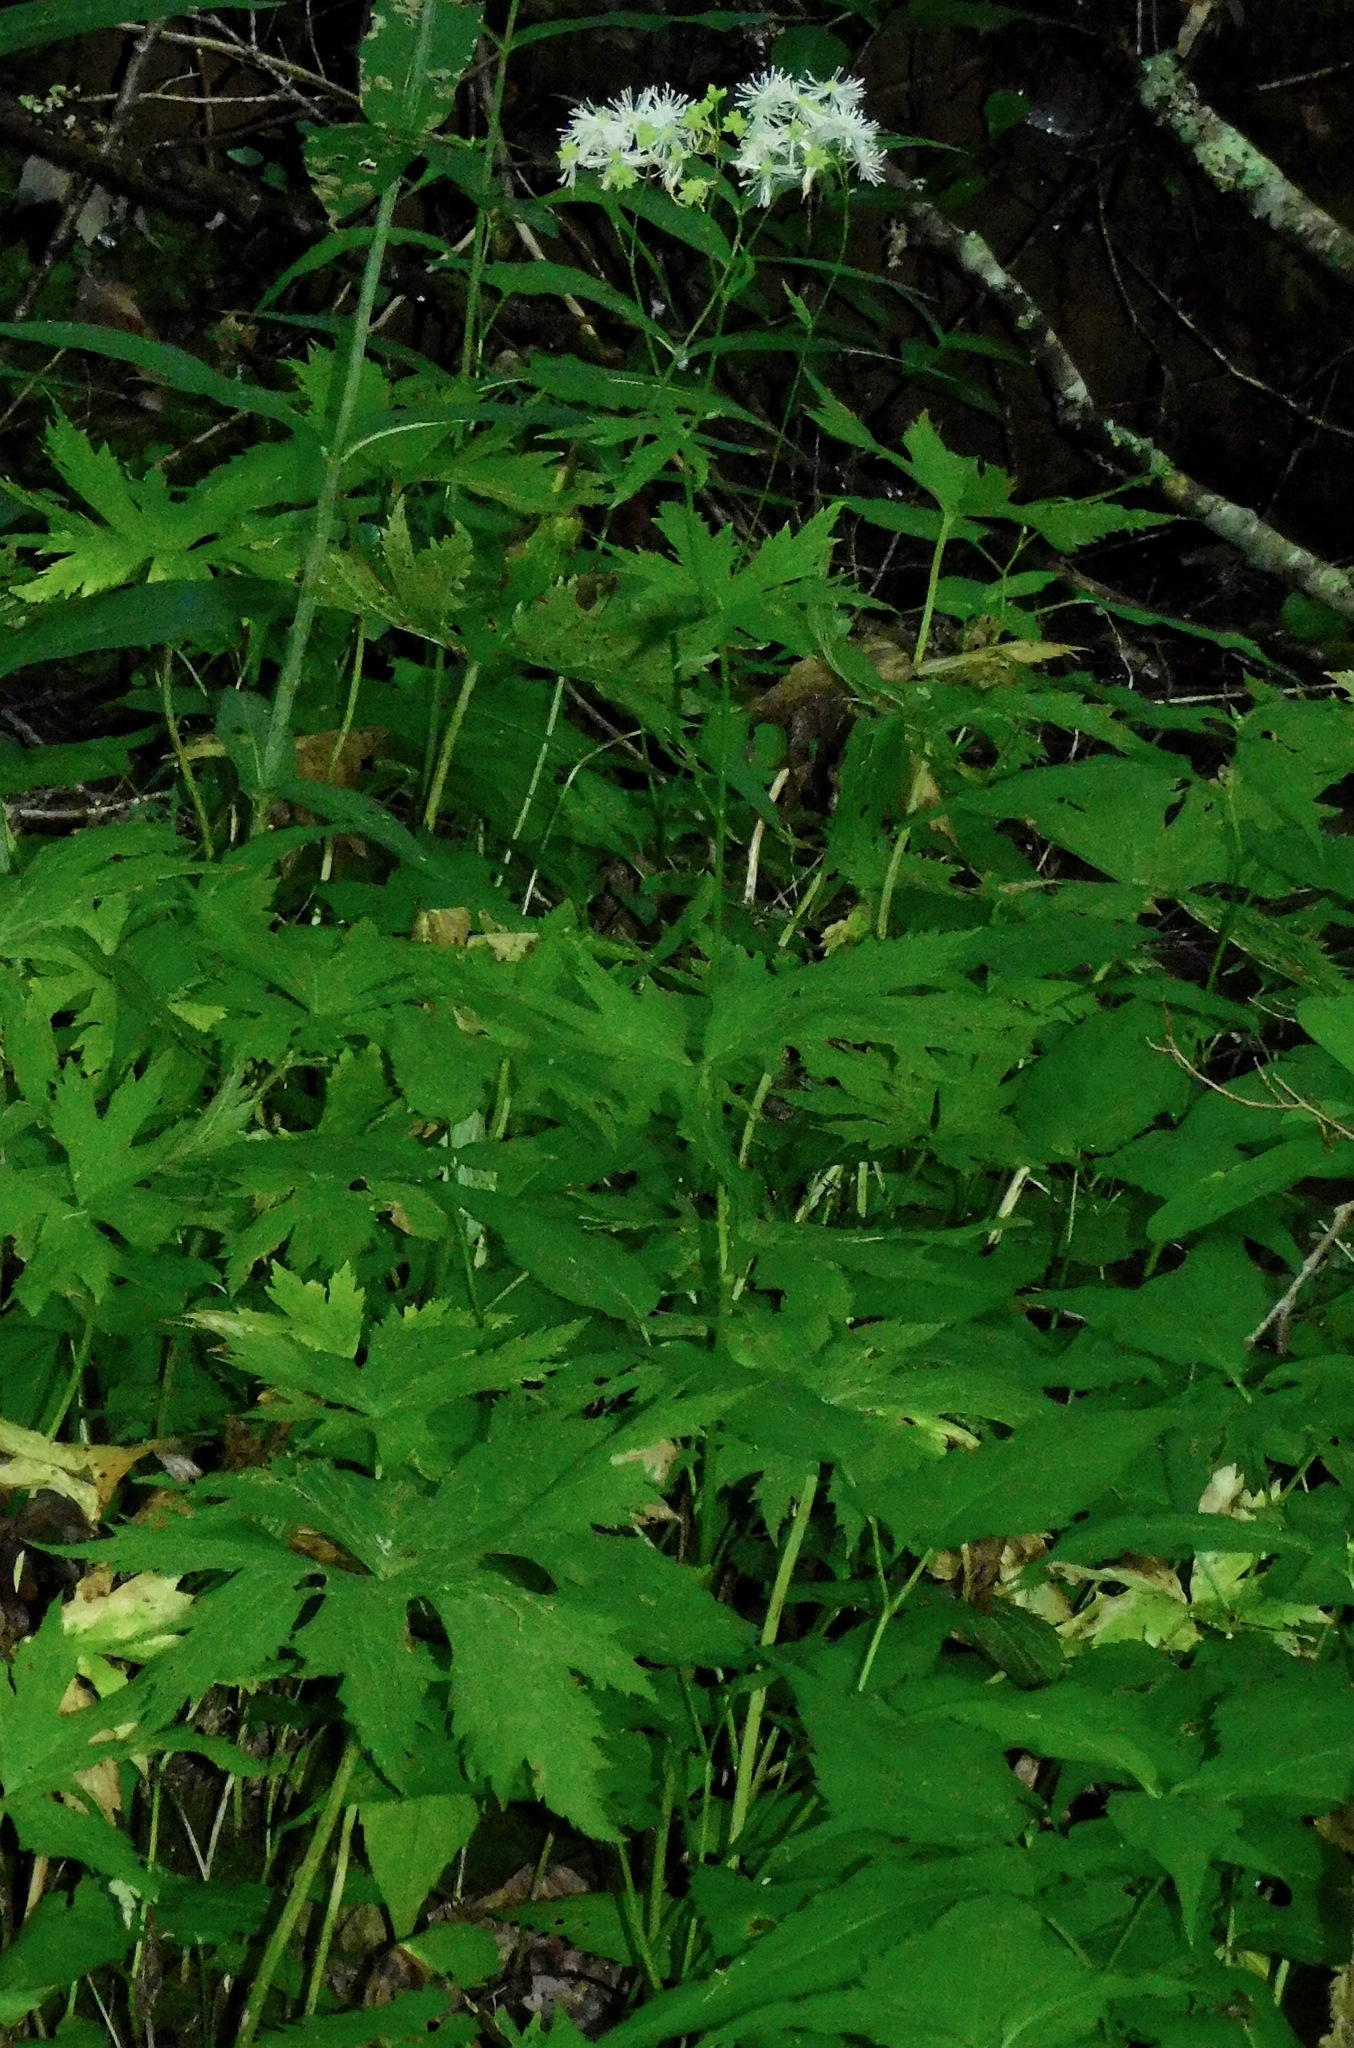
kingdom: Plantae
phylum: Tracheophyta
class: Magnoliopsida
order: Ranunculales
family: Ranunculaceae
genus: Trautvetteria
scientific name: Trautvetteria carolinensis
